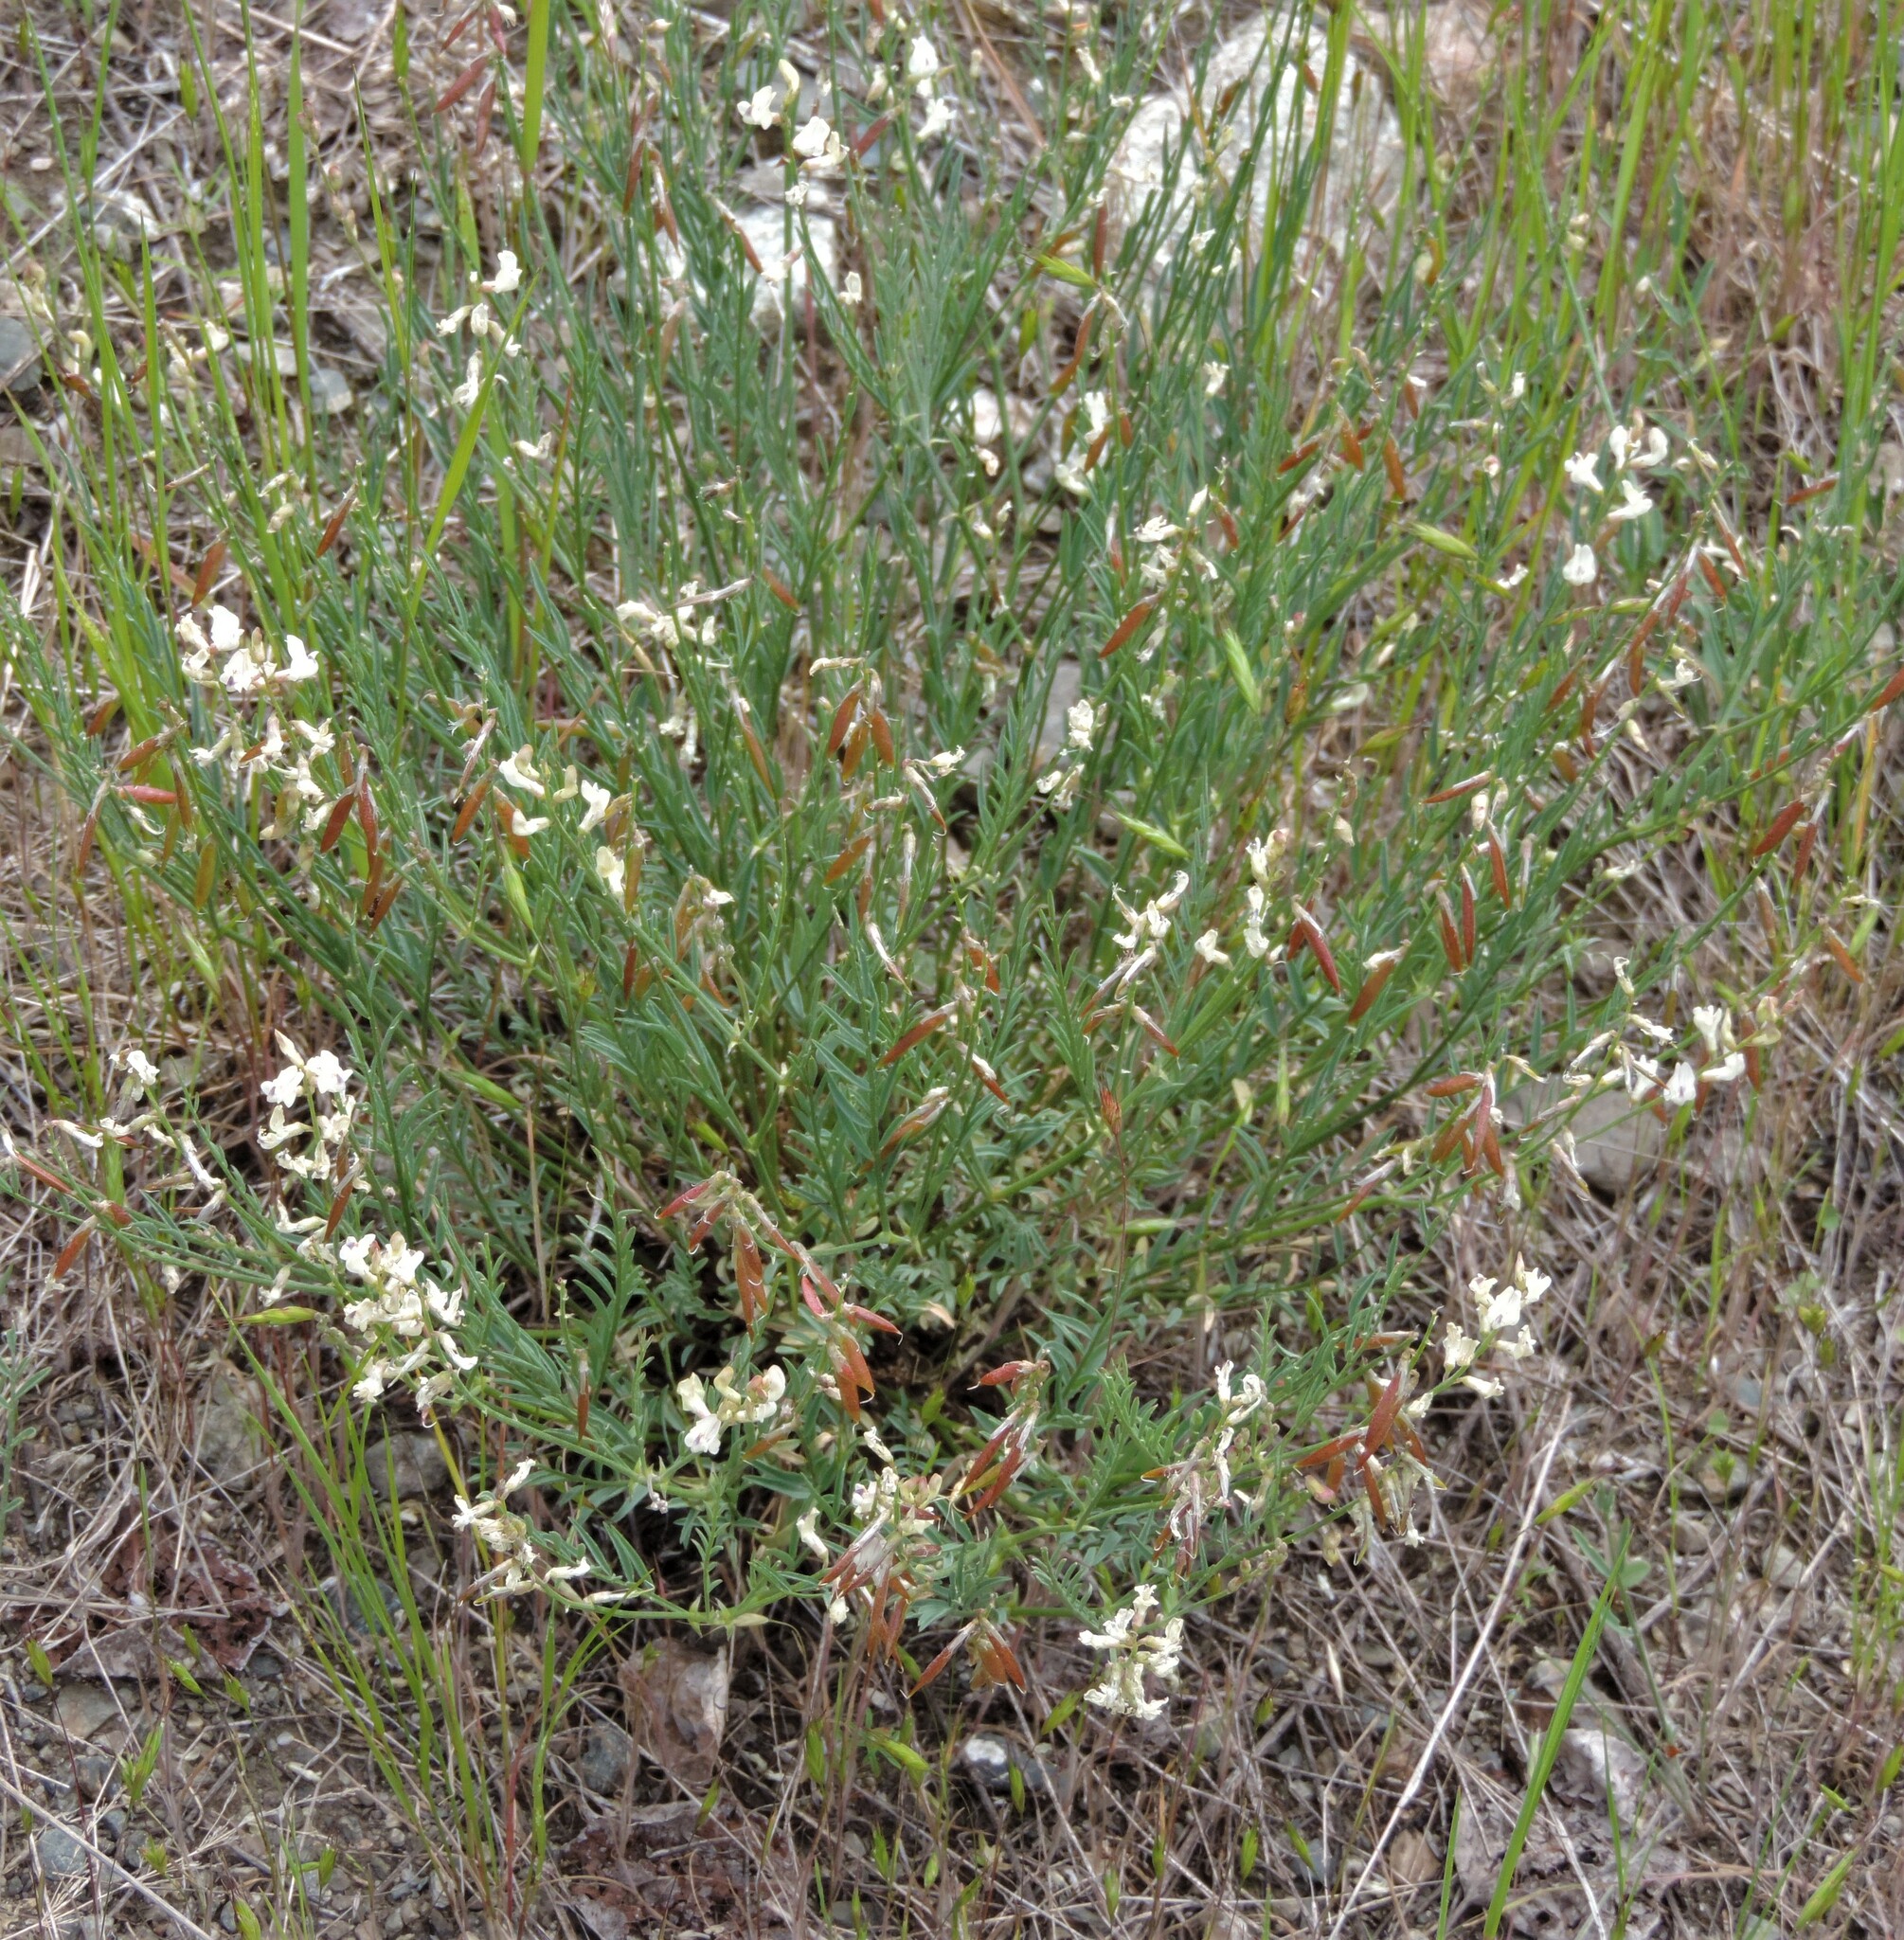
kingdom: Plantae
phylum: Tracheophyta
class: Magnoliopsida
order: Fabales
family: Fabaceae
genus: Astragalus
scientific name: Astragalus miser
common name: Timber milkvetch
